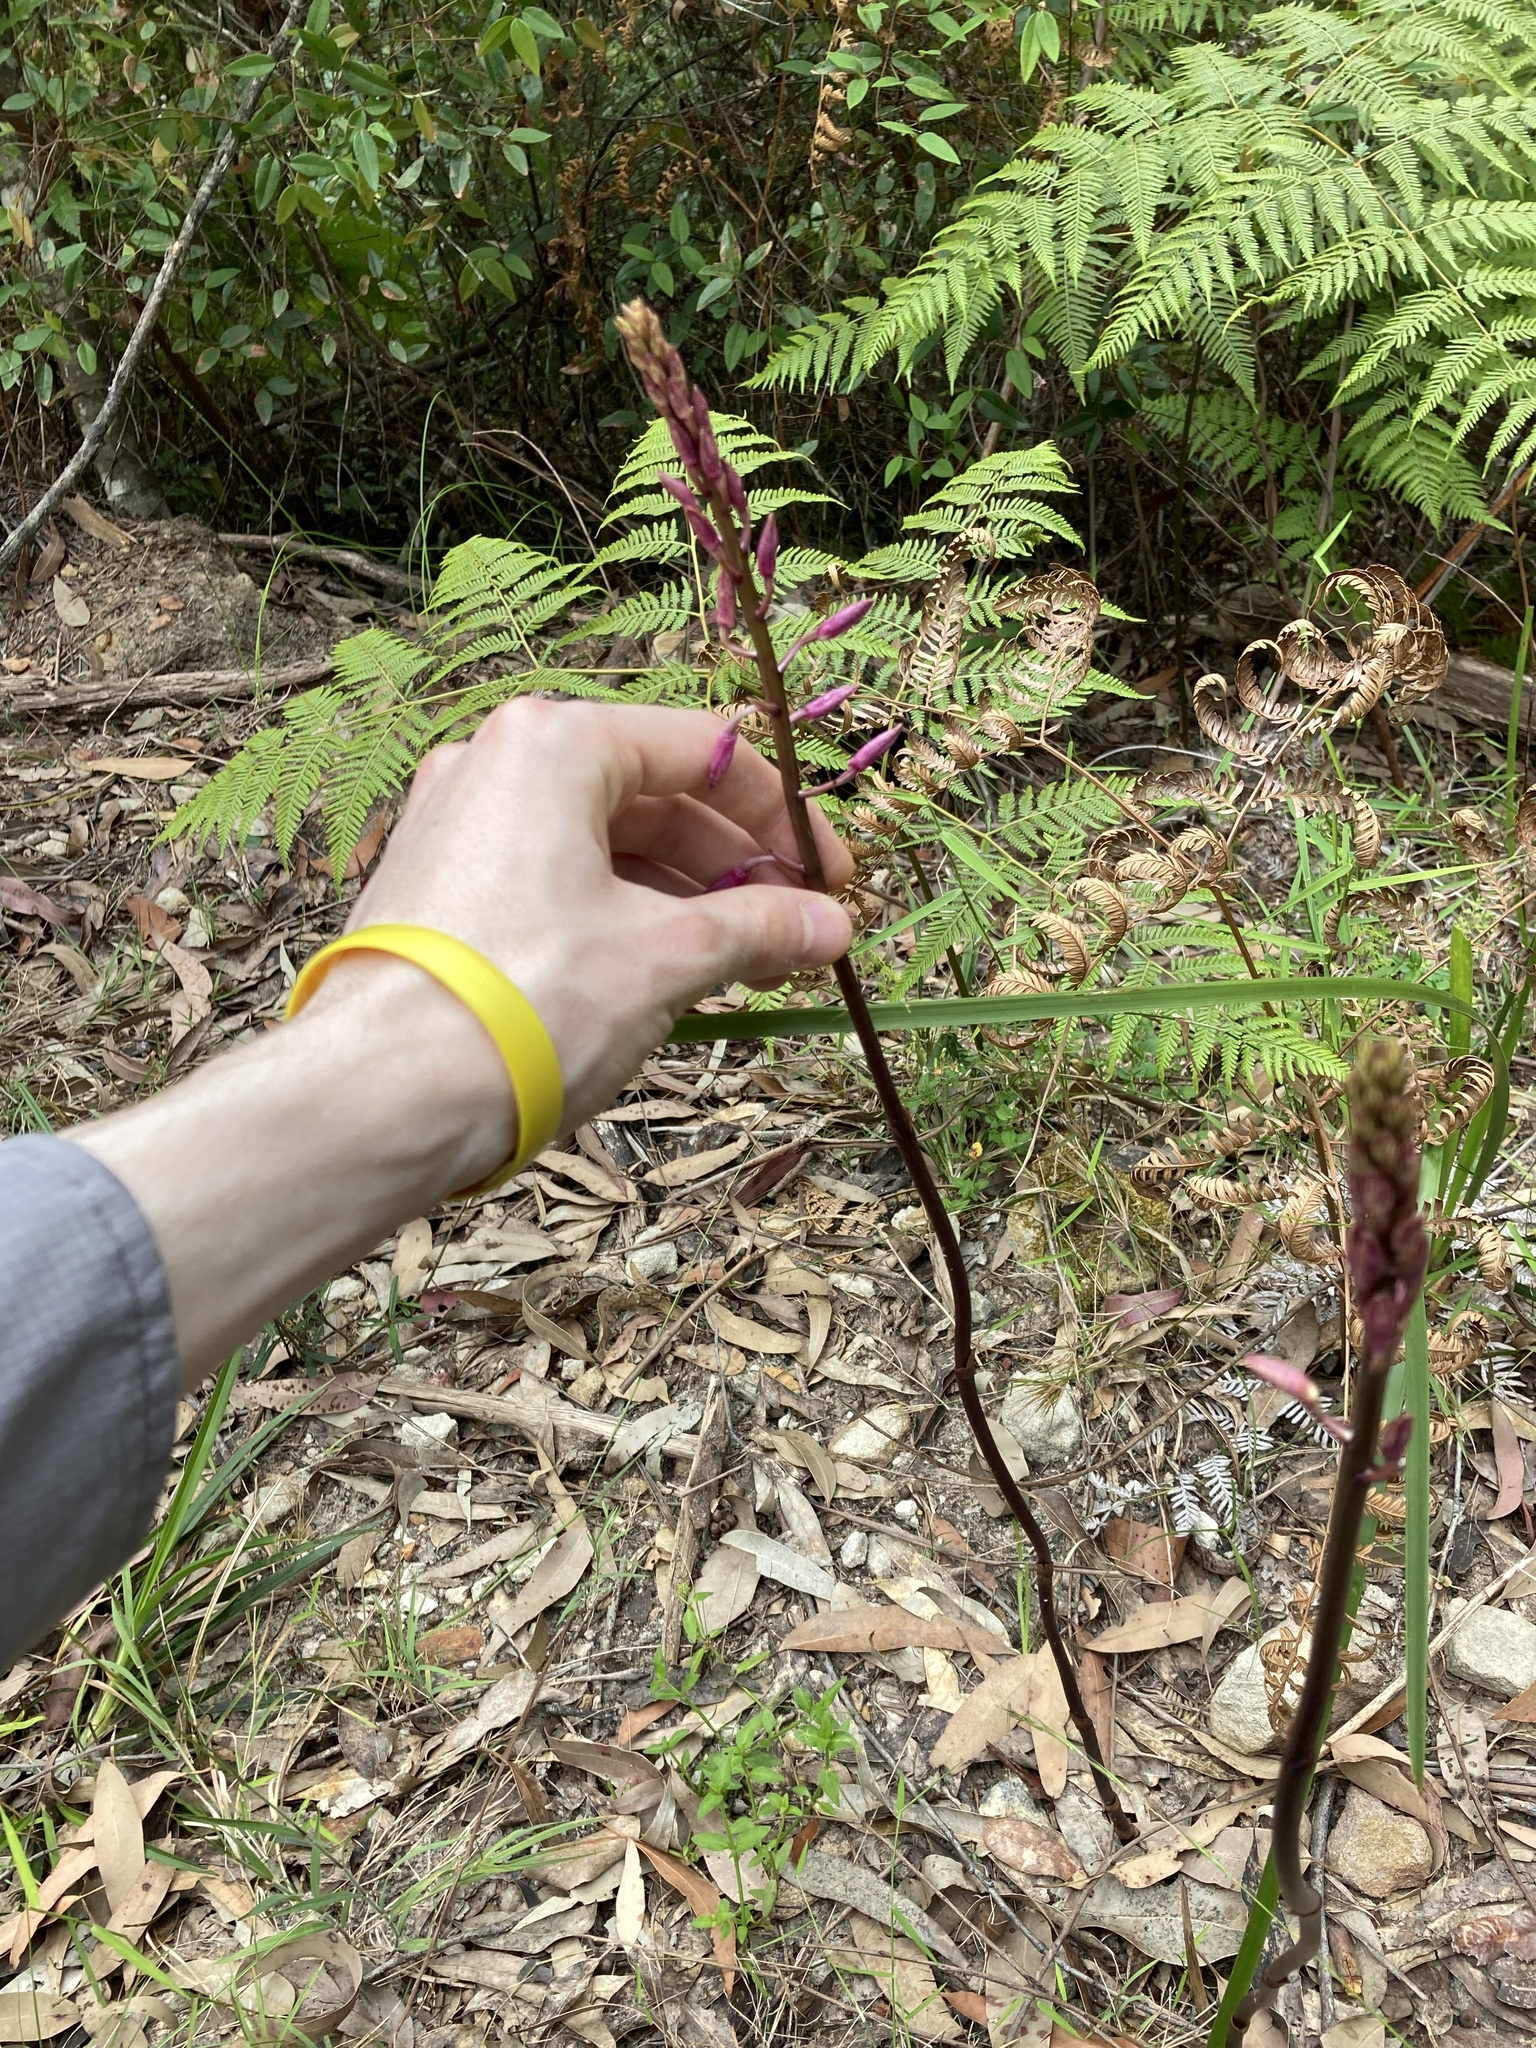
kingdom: Plantae
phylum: Tracheophyta
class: Liliopsida
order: Asparagales
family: Orchidaceae
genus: Dipodium
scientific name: Dipodium
